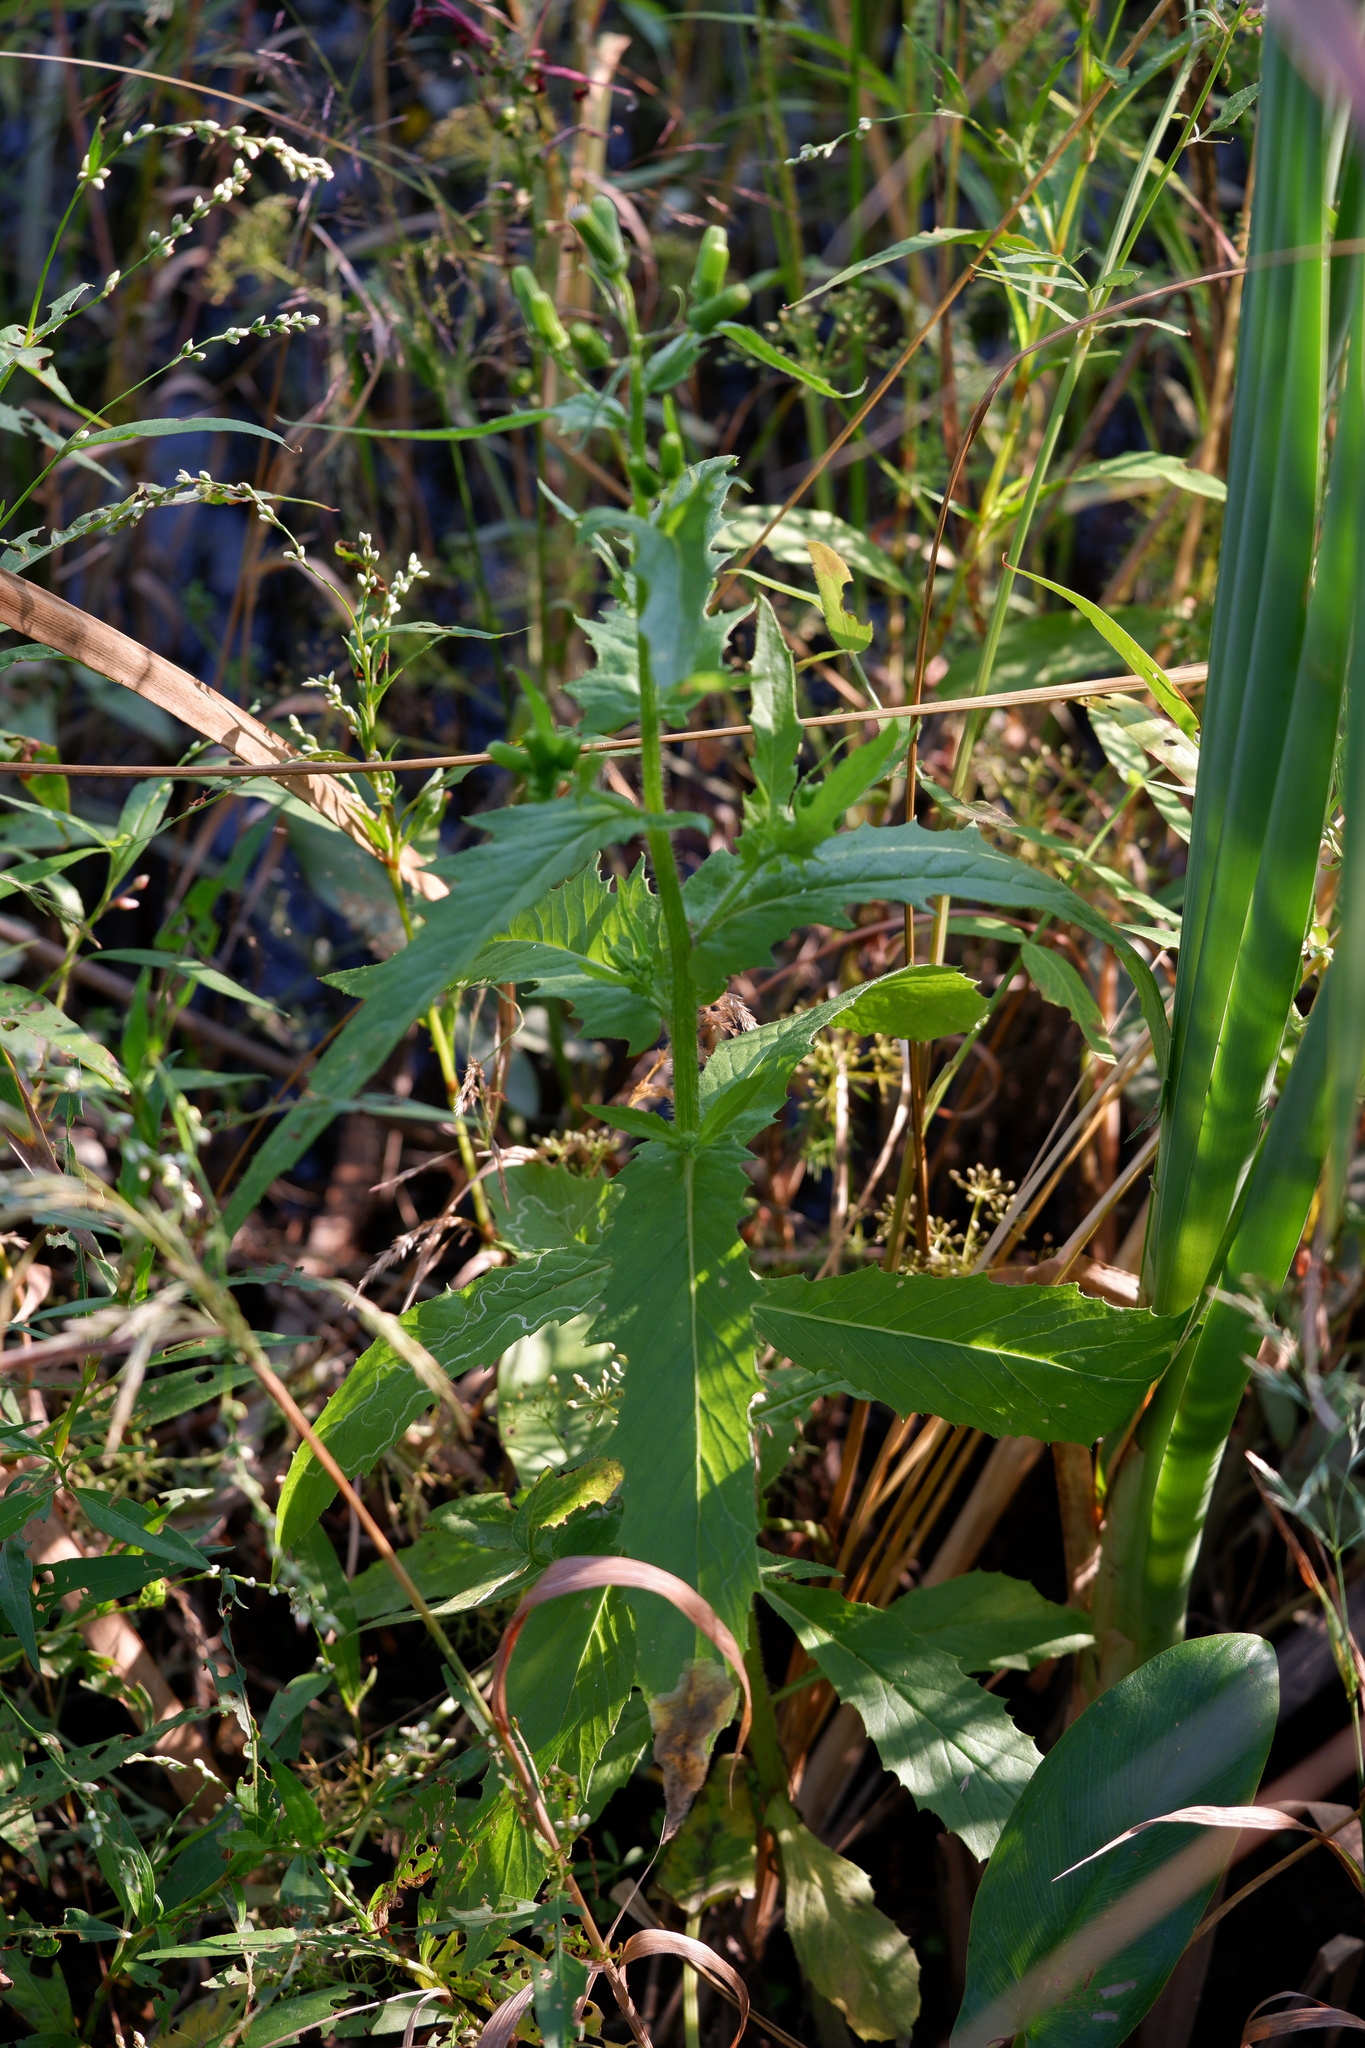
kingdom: Plantae
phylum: Tracheophyta
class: Magnoliopsida
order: Asterales
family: Asteraceae
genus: Erechtites
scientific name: Erechtites hieraciifolius
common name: American burnweed
